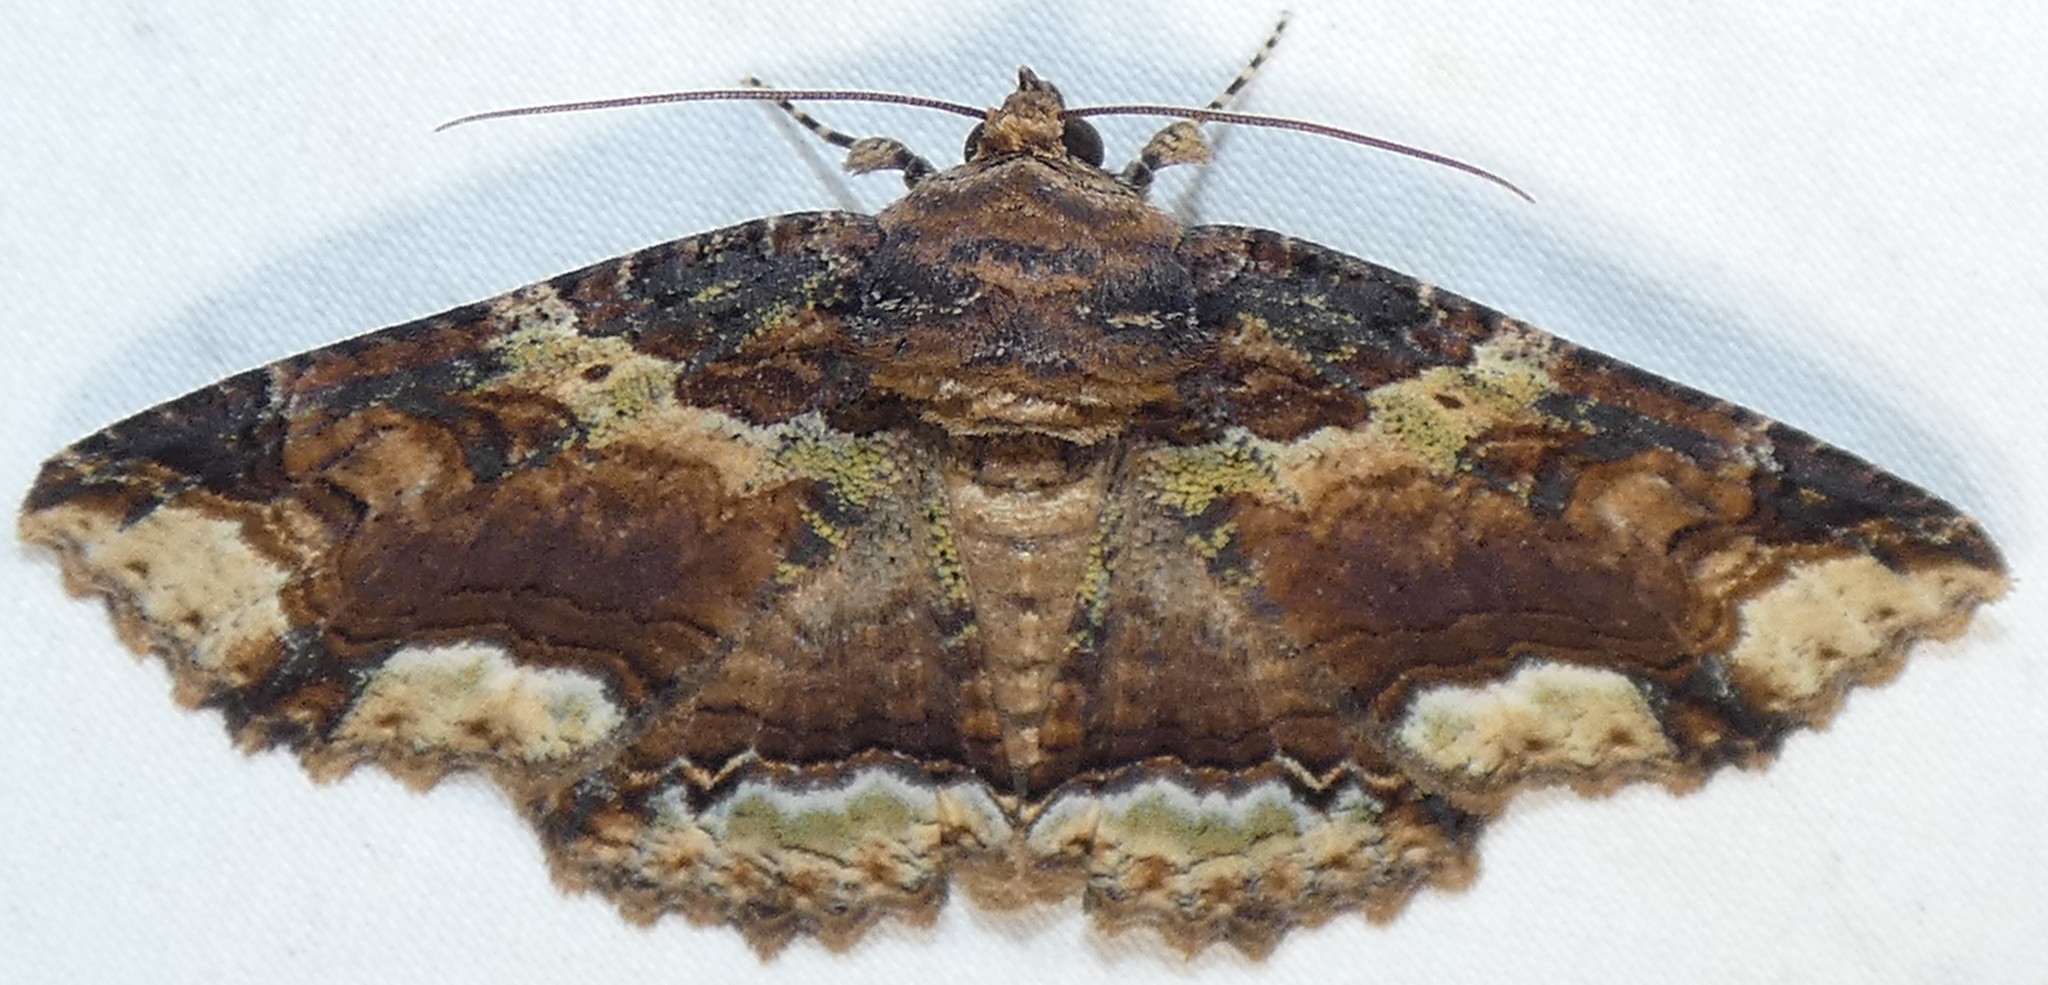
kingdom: Animalia
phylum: Arthropoda
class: Insecta
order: Lepidoptera
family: Erebidae
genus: Zale
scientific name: Zale minerea
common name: Colorful zale moth
